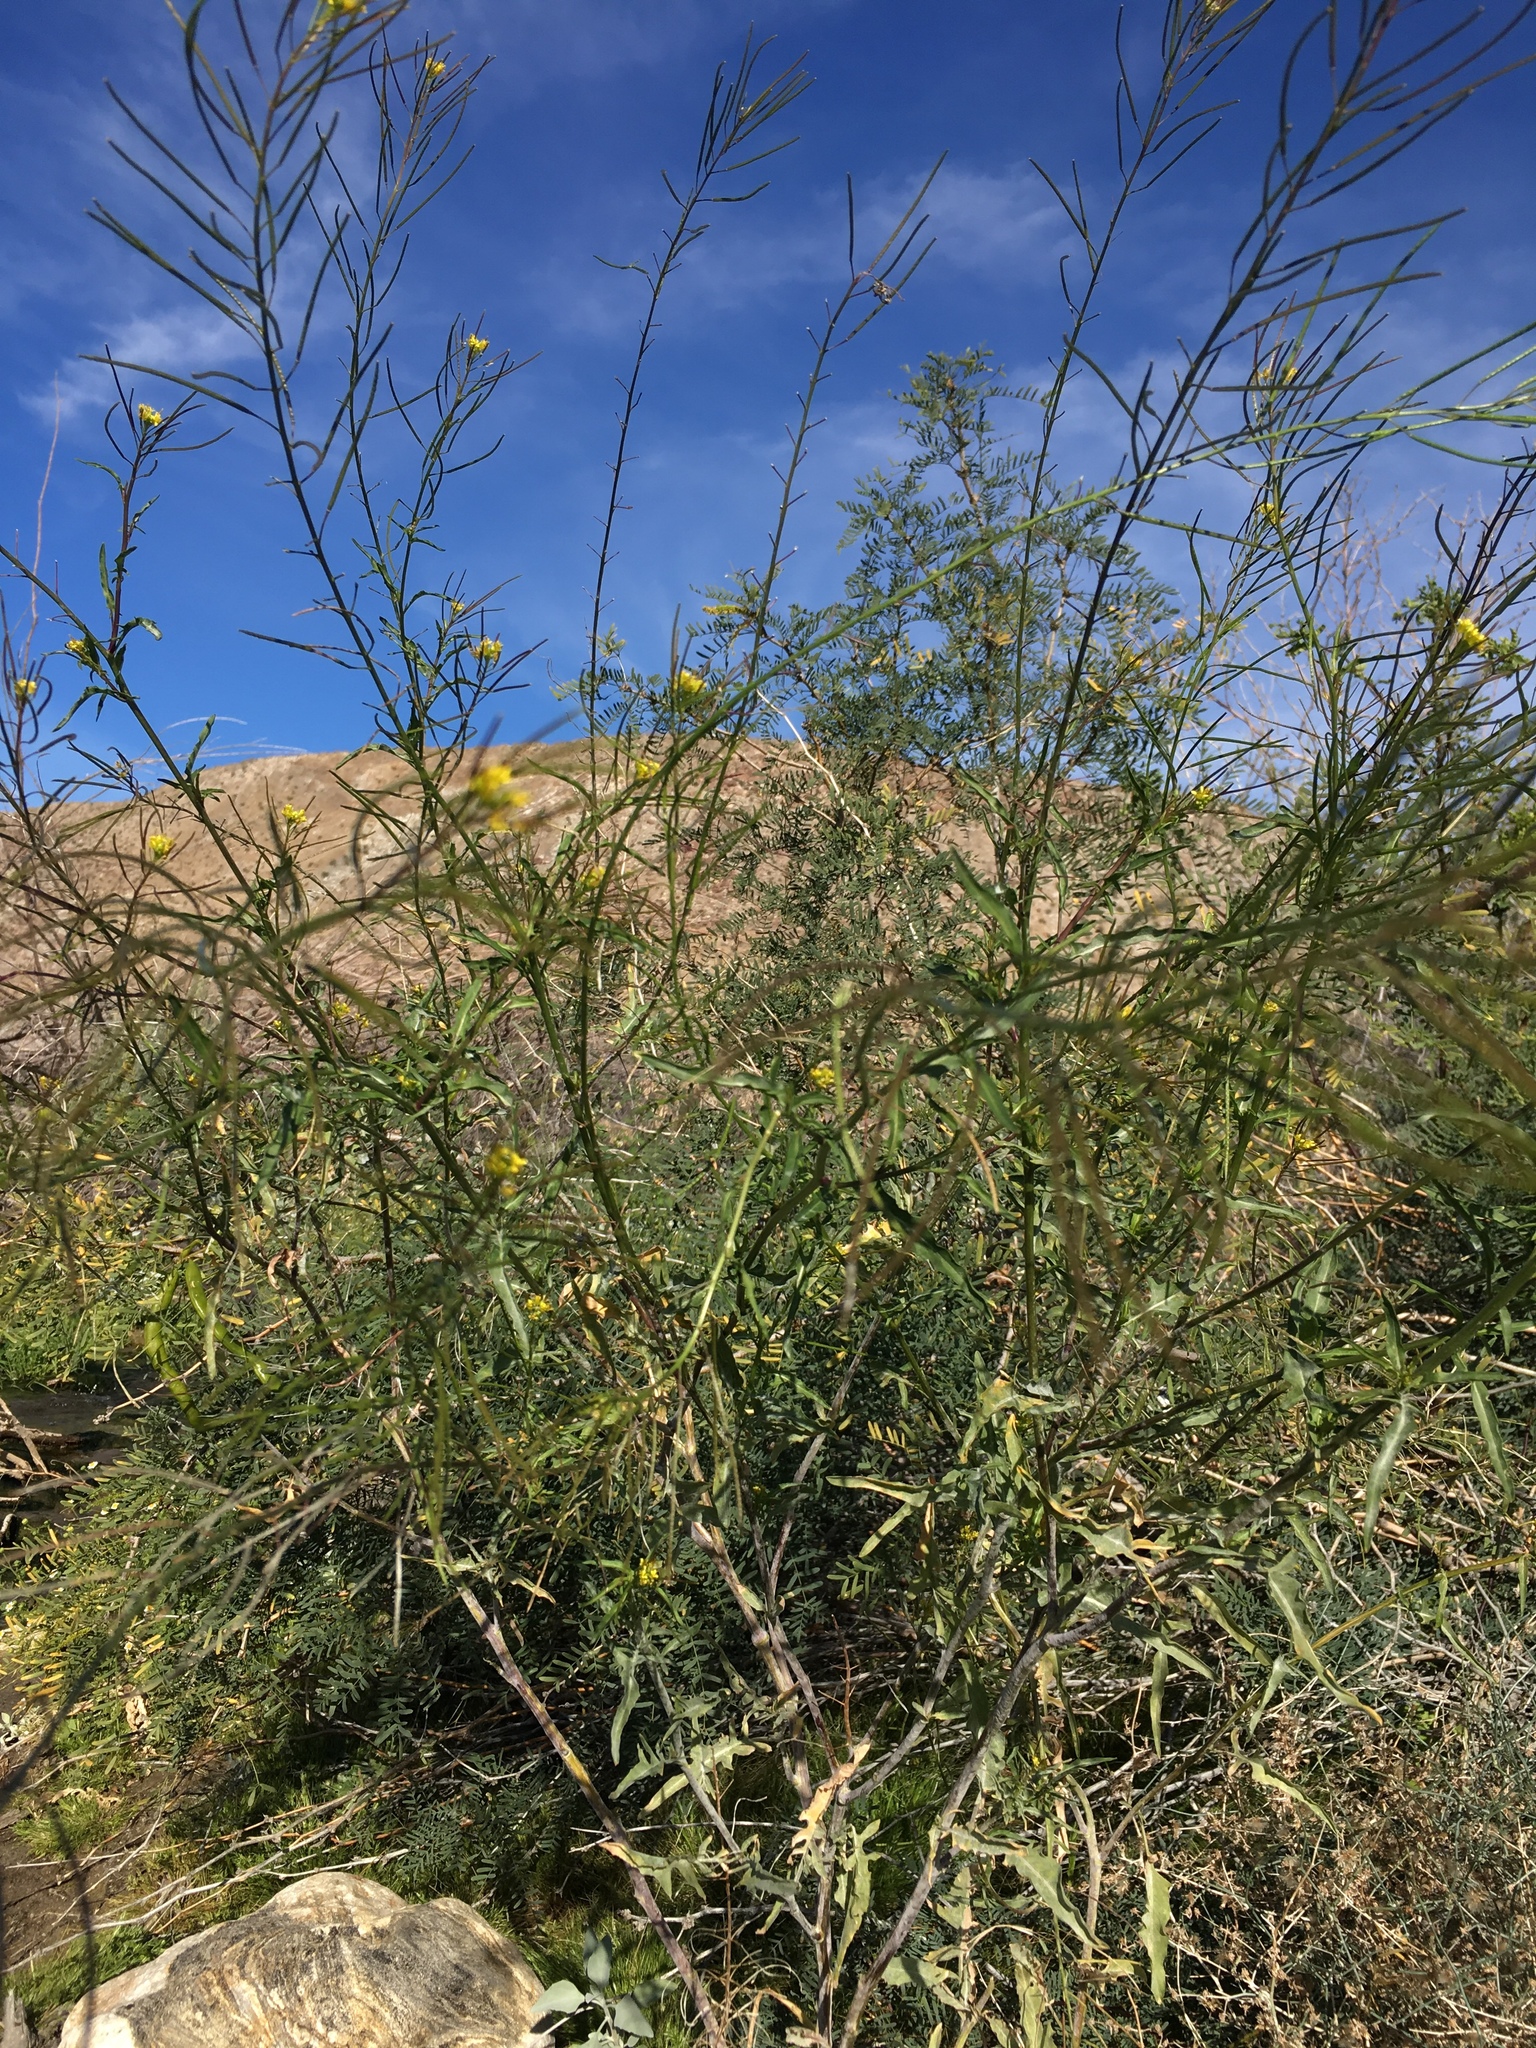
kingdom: Plantae
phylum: Tracheophyta
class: Magnoliopsida
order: Brassicales
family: Brassicaceae
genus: Sisymbrium
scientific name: Sisymbrium irio
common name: London rocket
